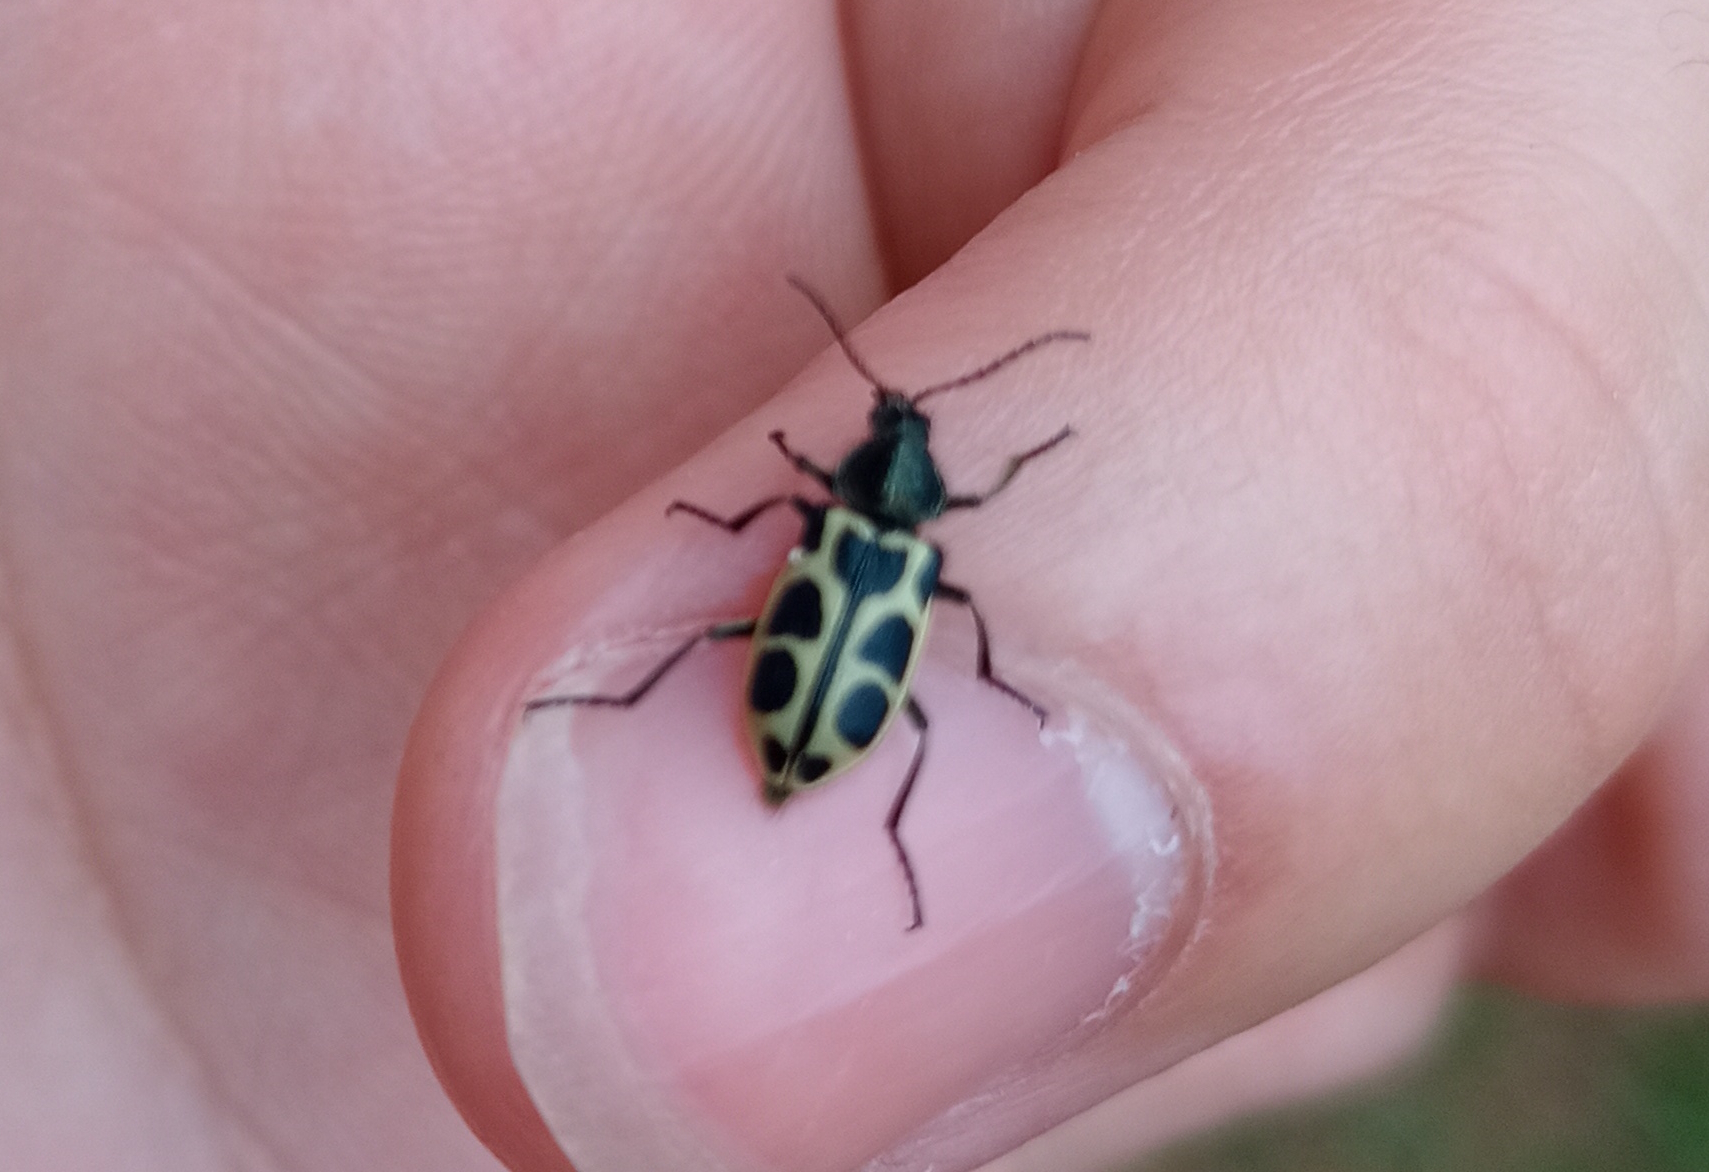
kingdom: Animalia
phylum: Arthropoda
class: Insecta
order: Coleoptera
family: Melyridae
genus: Astylus
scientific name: Astylus
